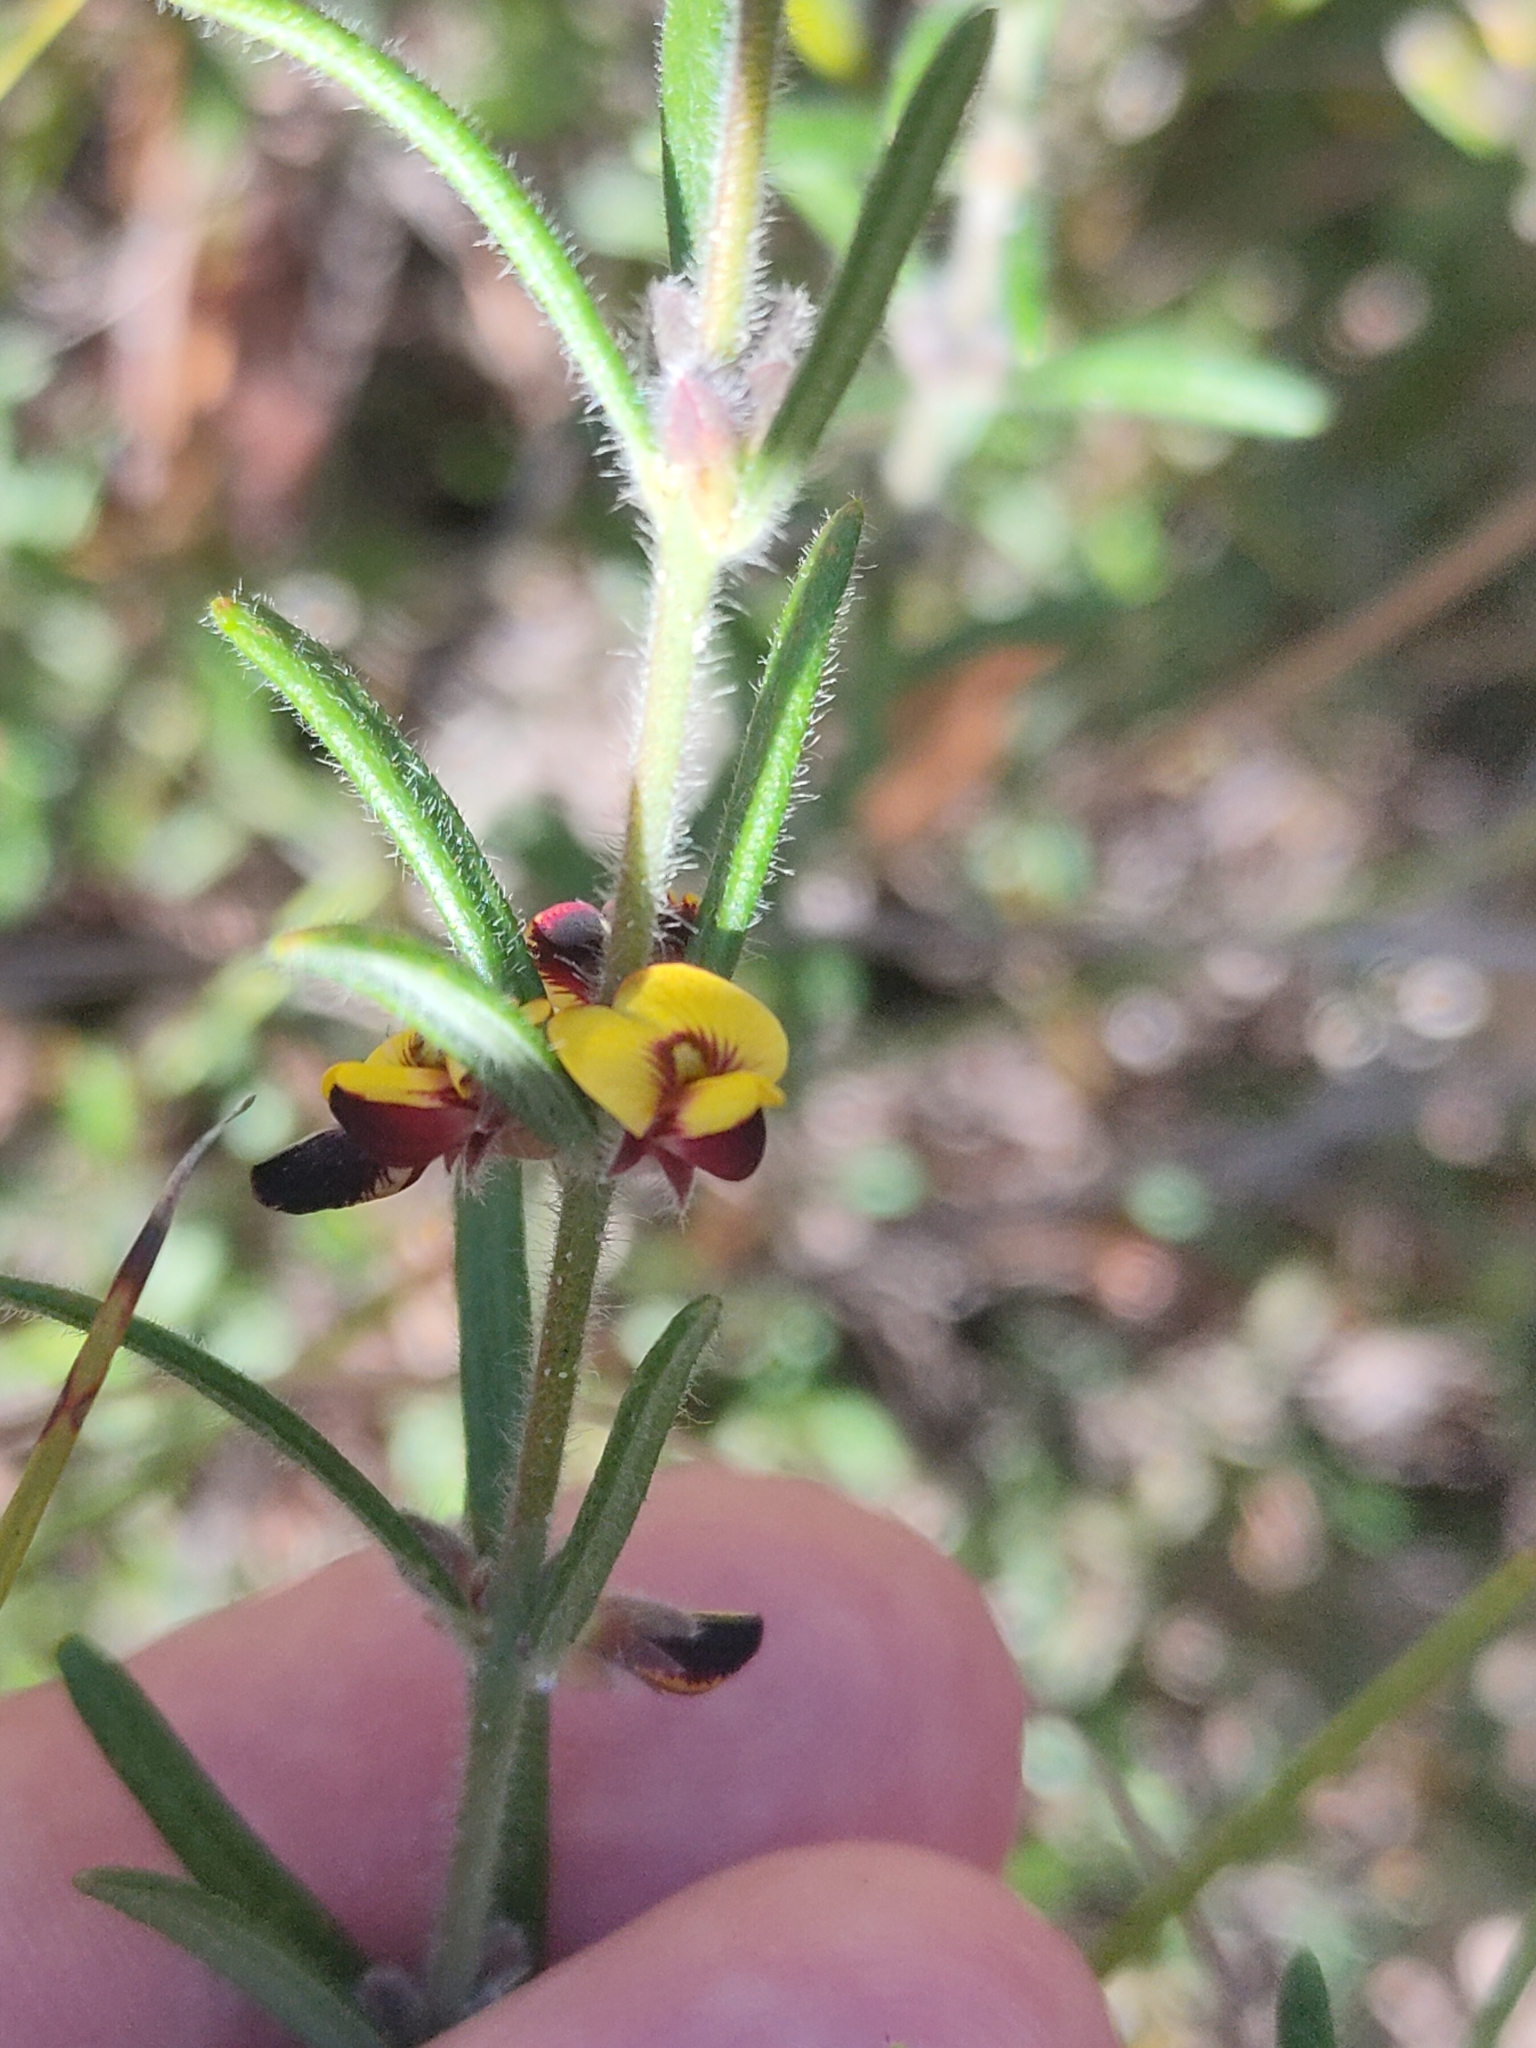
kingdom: Plantae
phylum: Tracheophyta
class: Magnoliopsida
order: Fabales
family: Fabaceae
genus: Aotus
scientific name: Aotus mollis
